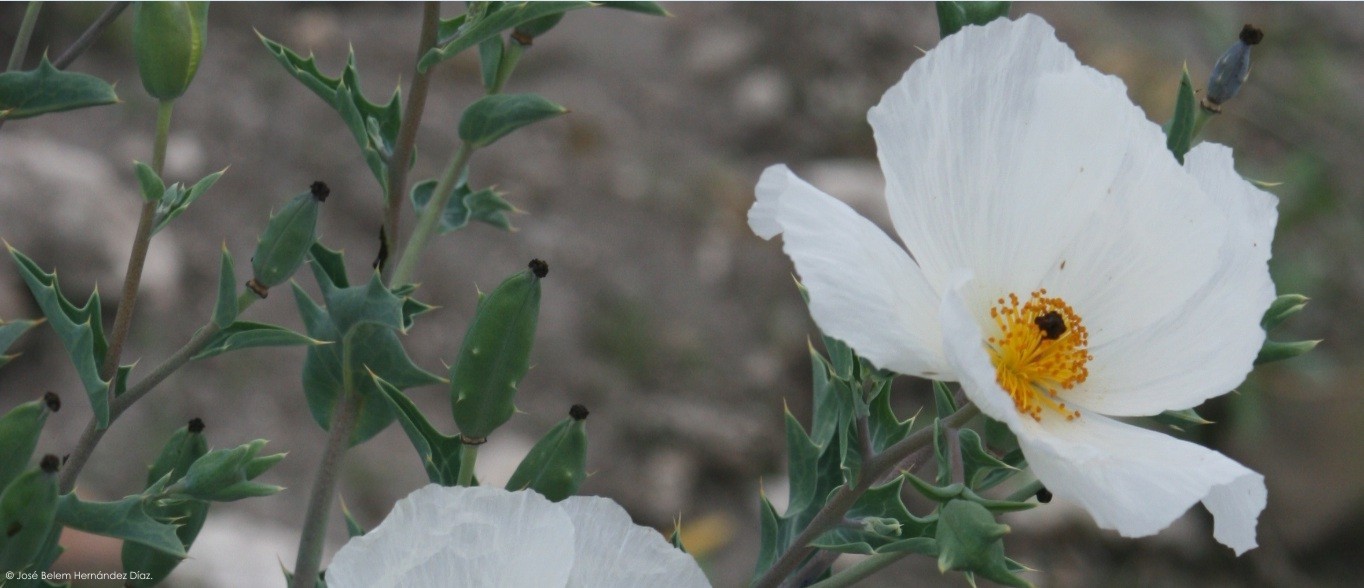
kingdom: Plantae
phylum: Tracheophyta
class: Magnoliopsida
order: Ranunculales
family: Papaveraceae
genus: Argemone
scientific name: Argemone grandiflora
